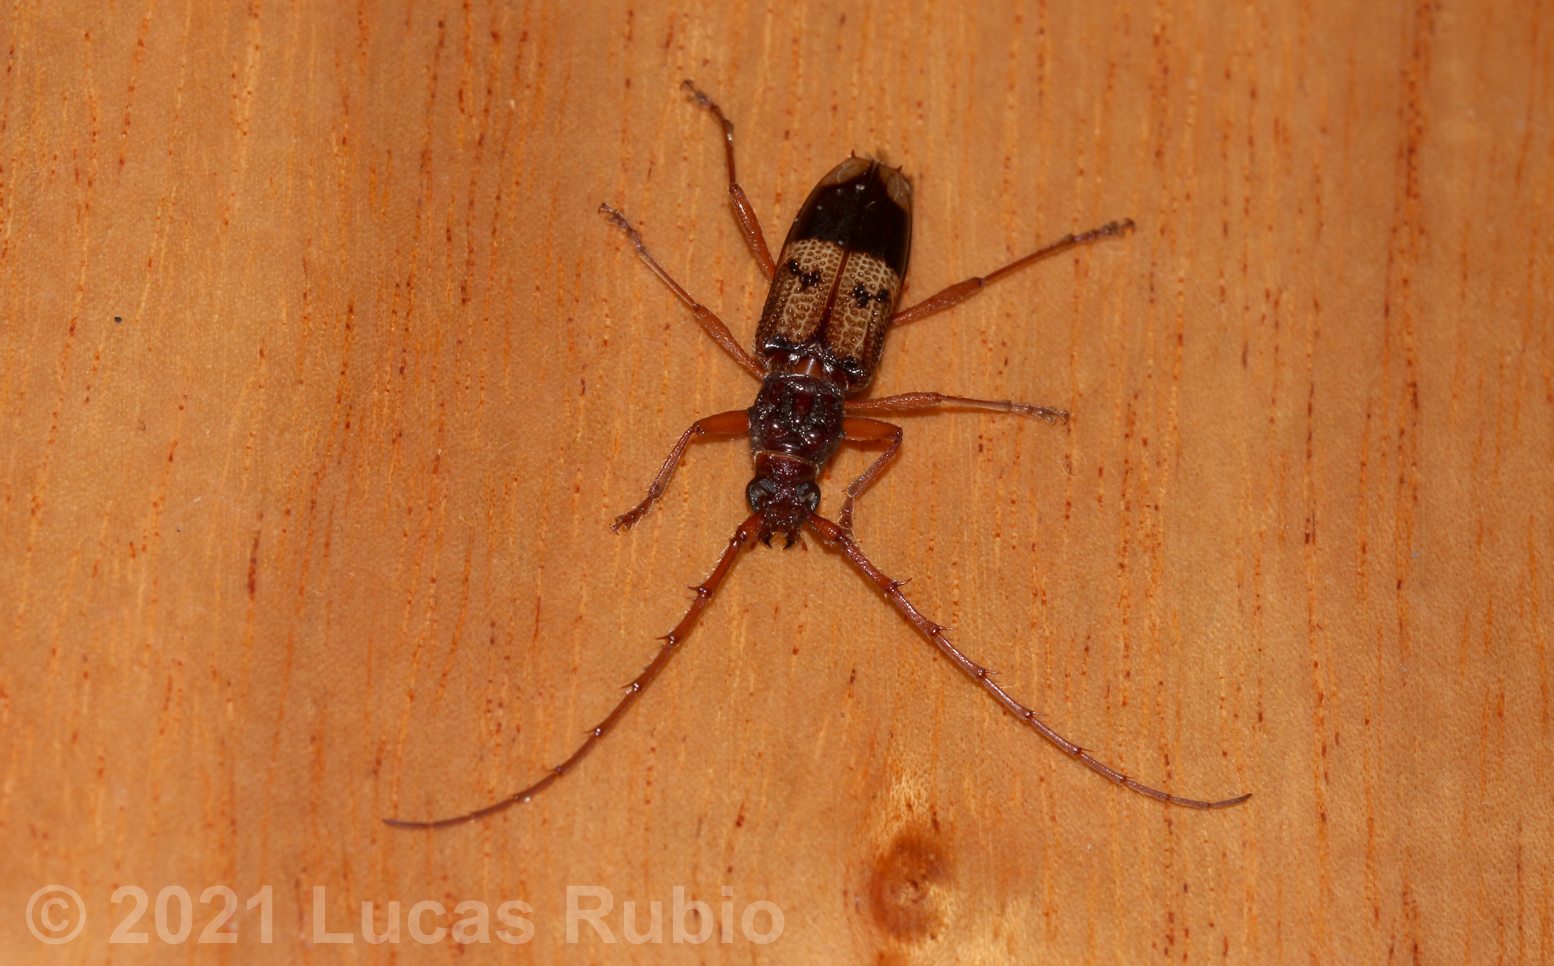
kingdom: Animalia
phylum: Arthropoda
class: Insecta
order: Coleoptera
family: Cerambycidae
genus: Phoracantha
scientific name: Phoracantha recurva
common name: Eucalyptus longhorned borer
